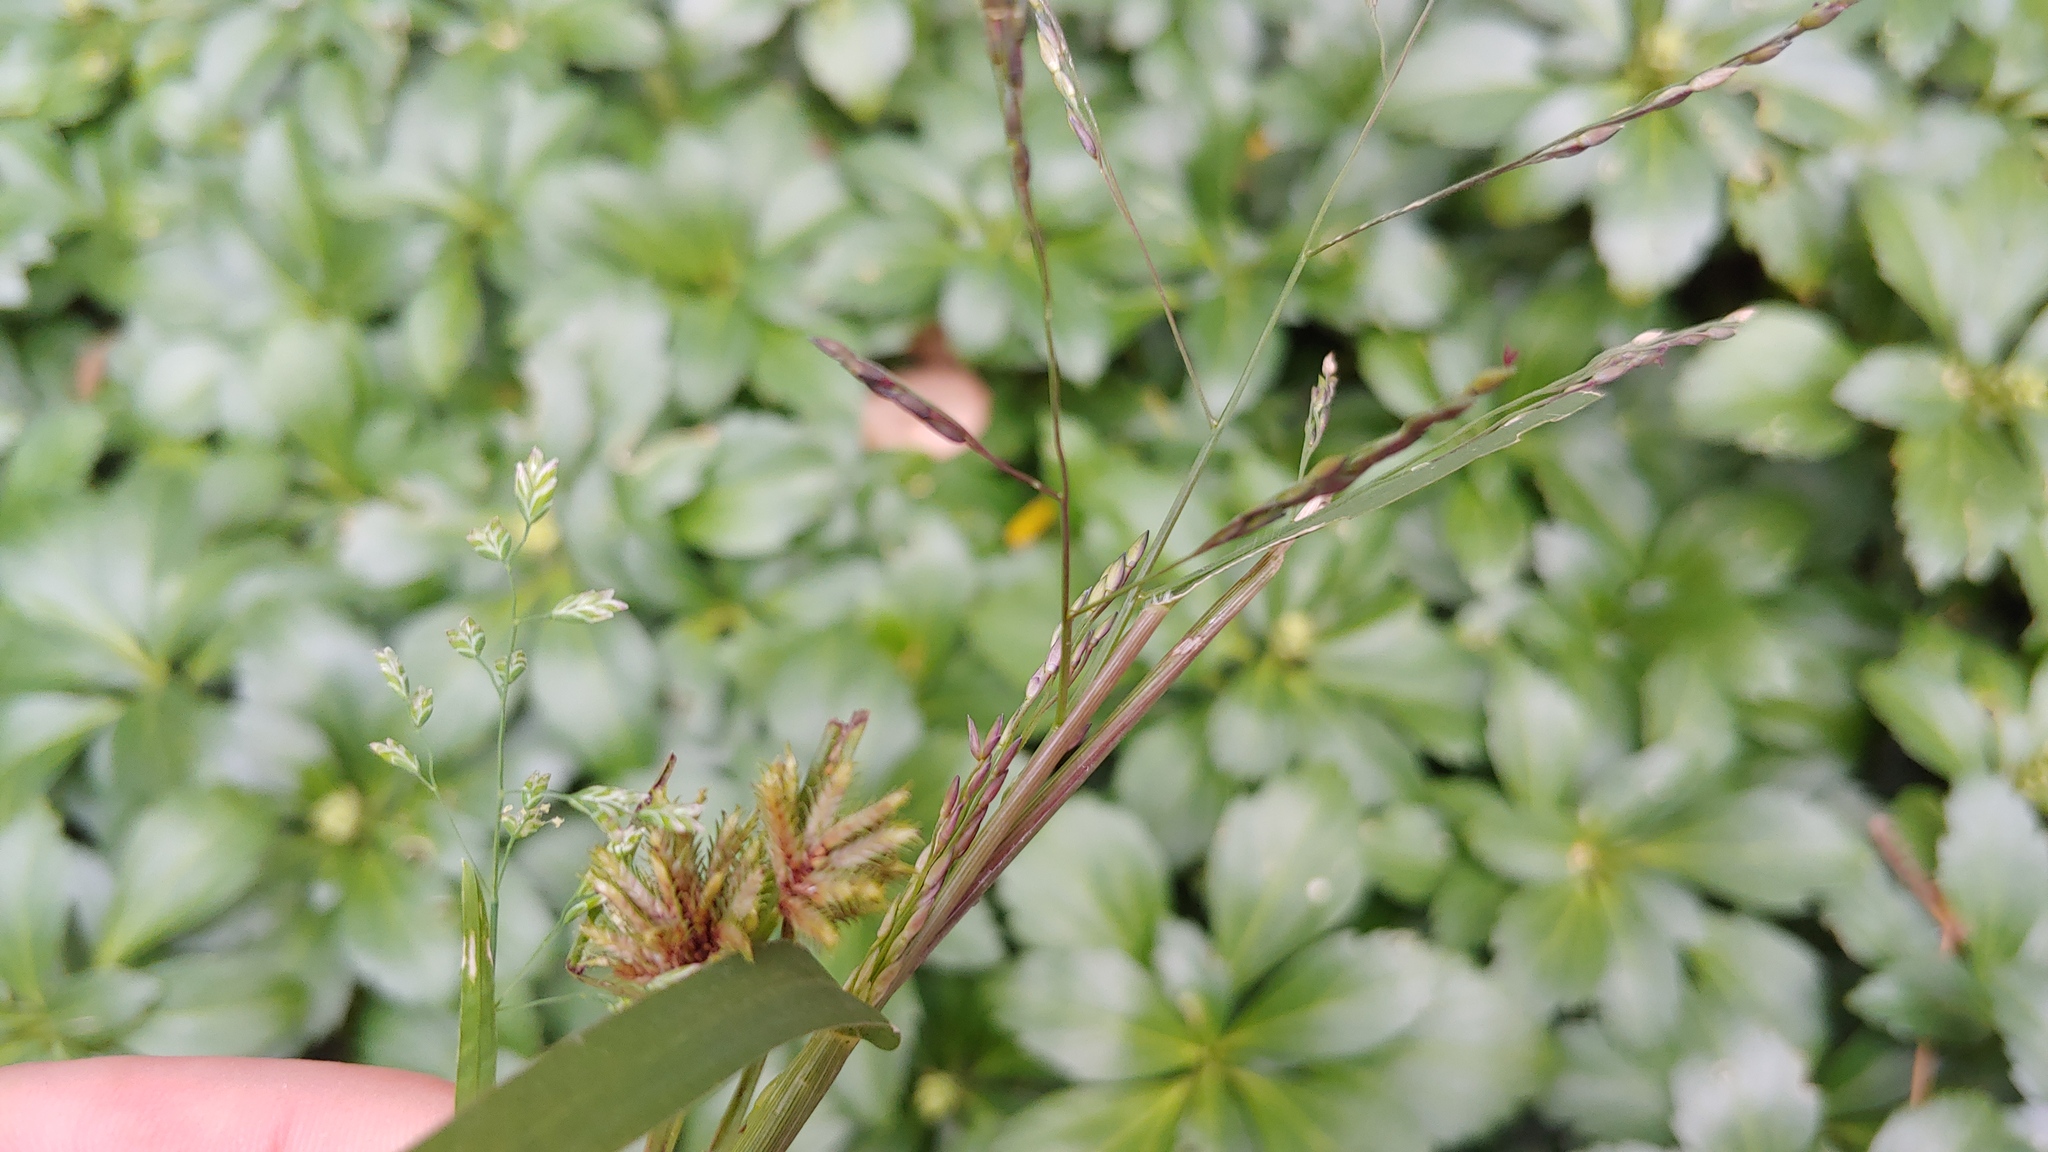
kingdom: Plantae
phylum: Tracheophyta
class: Liliopsida
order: Poales
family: Poaceae
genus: Panicum
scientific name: Panicum dichotomiflorum
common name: Autumn millet
